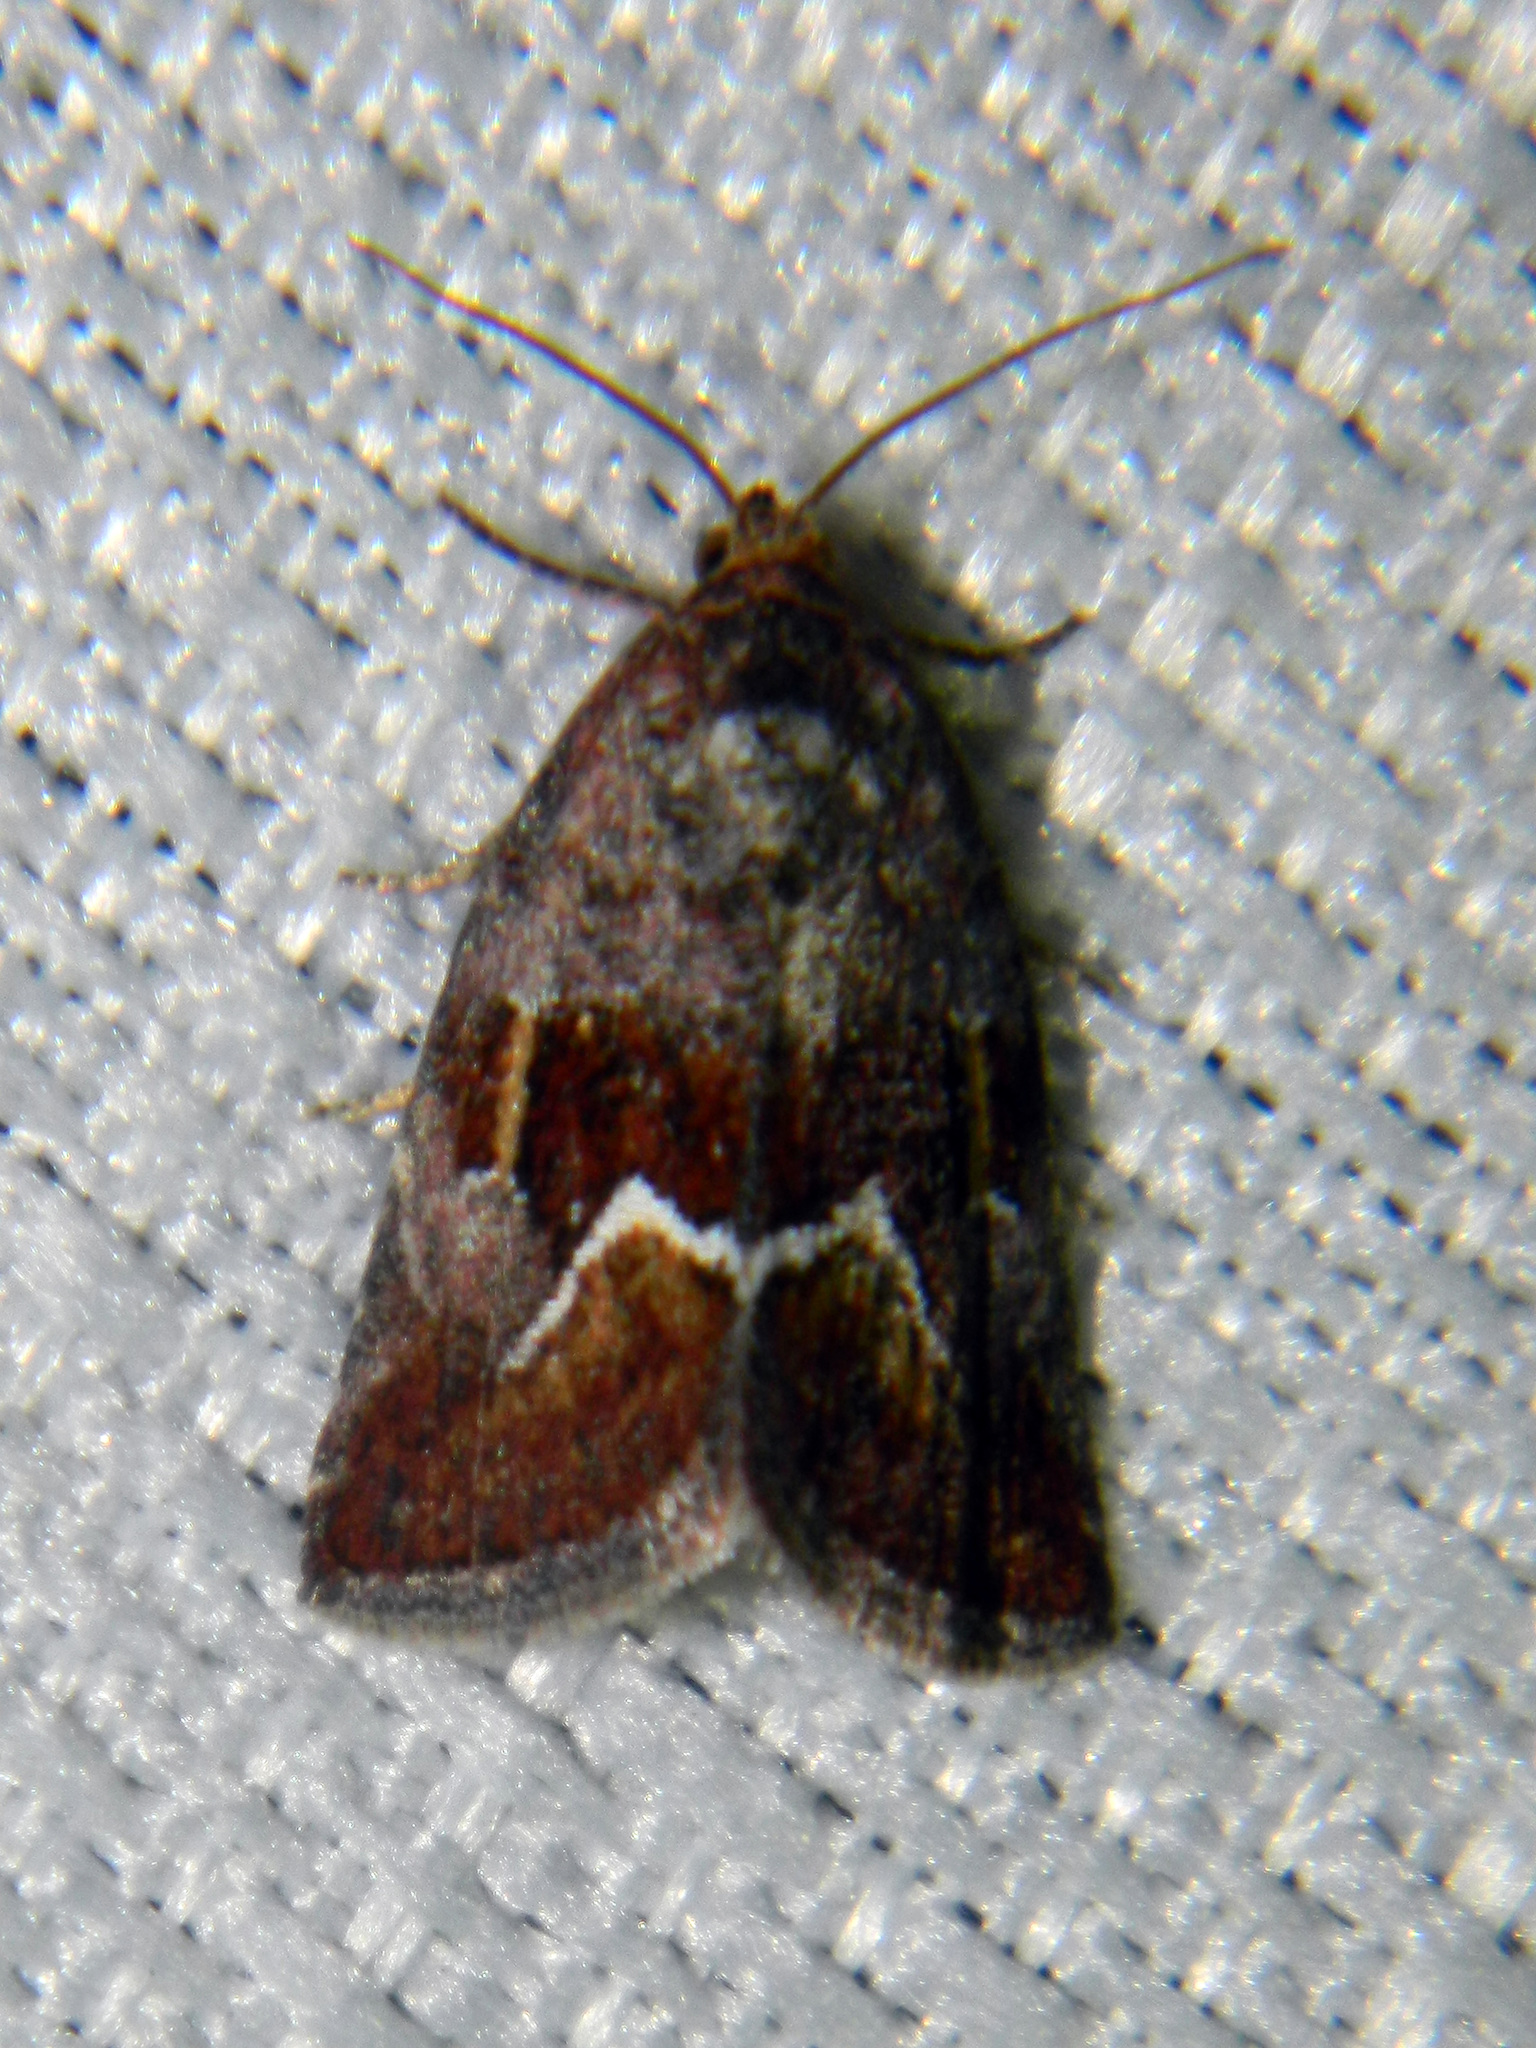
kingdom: Animalia
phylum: Arthropoda
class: Insecta
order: Lepidoptera
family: Noctuidae
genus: Deltote
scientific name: Deltote bellicula
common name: Bog glyph
